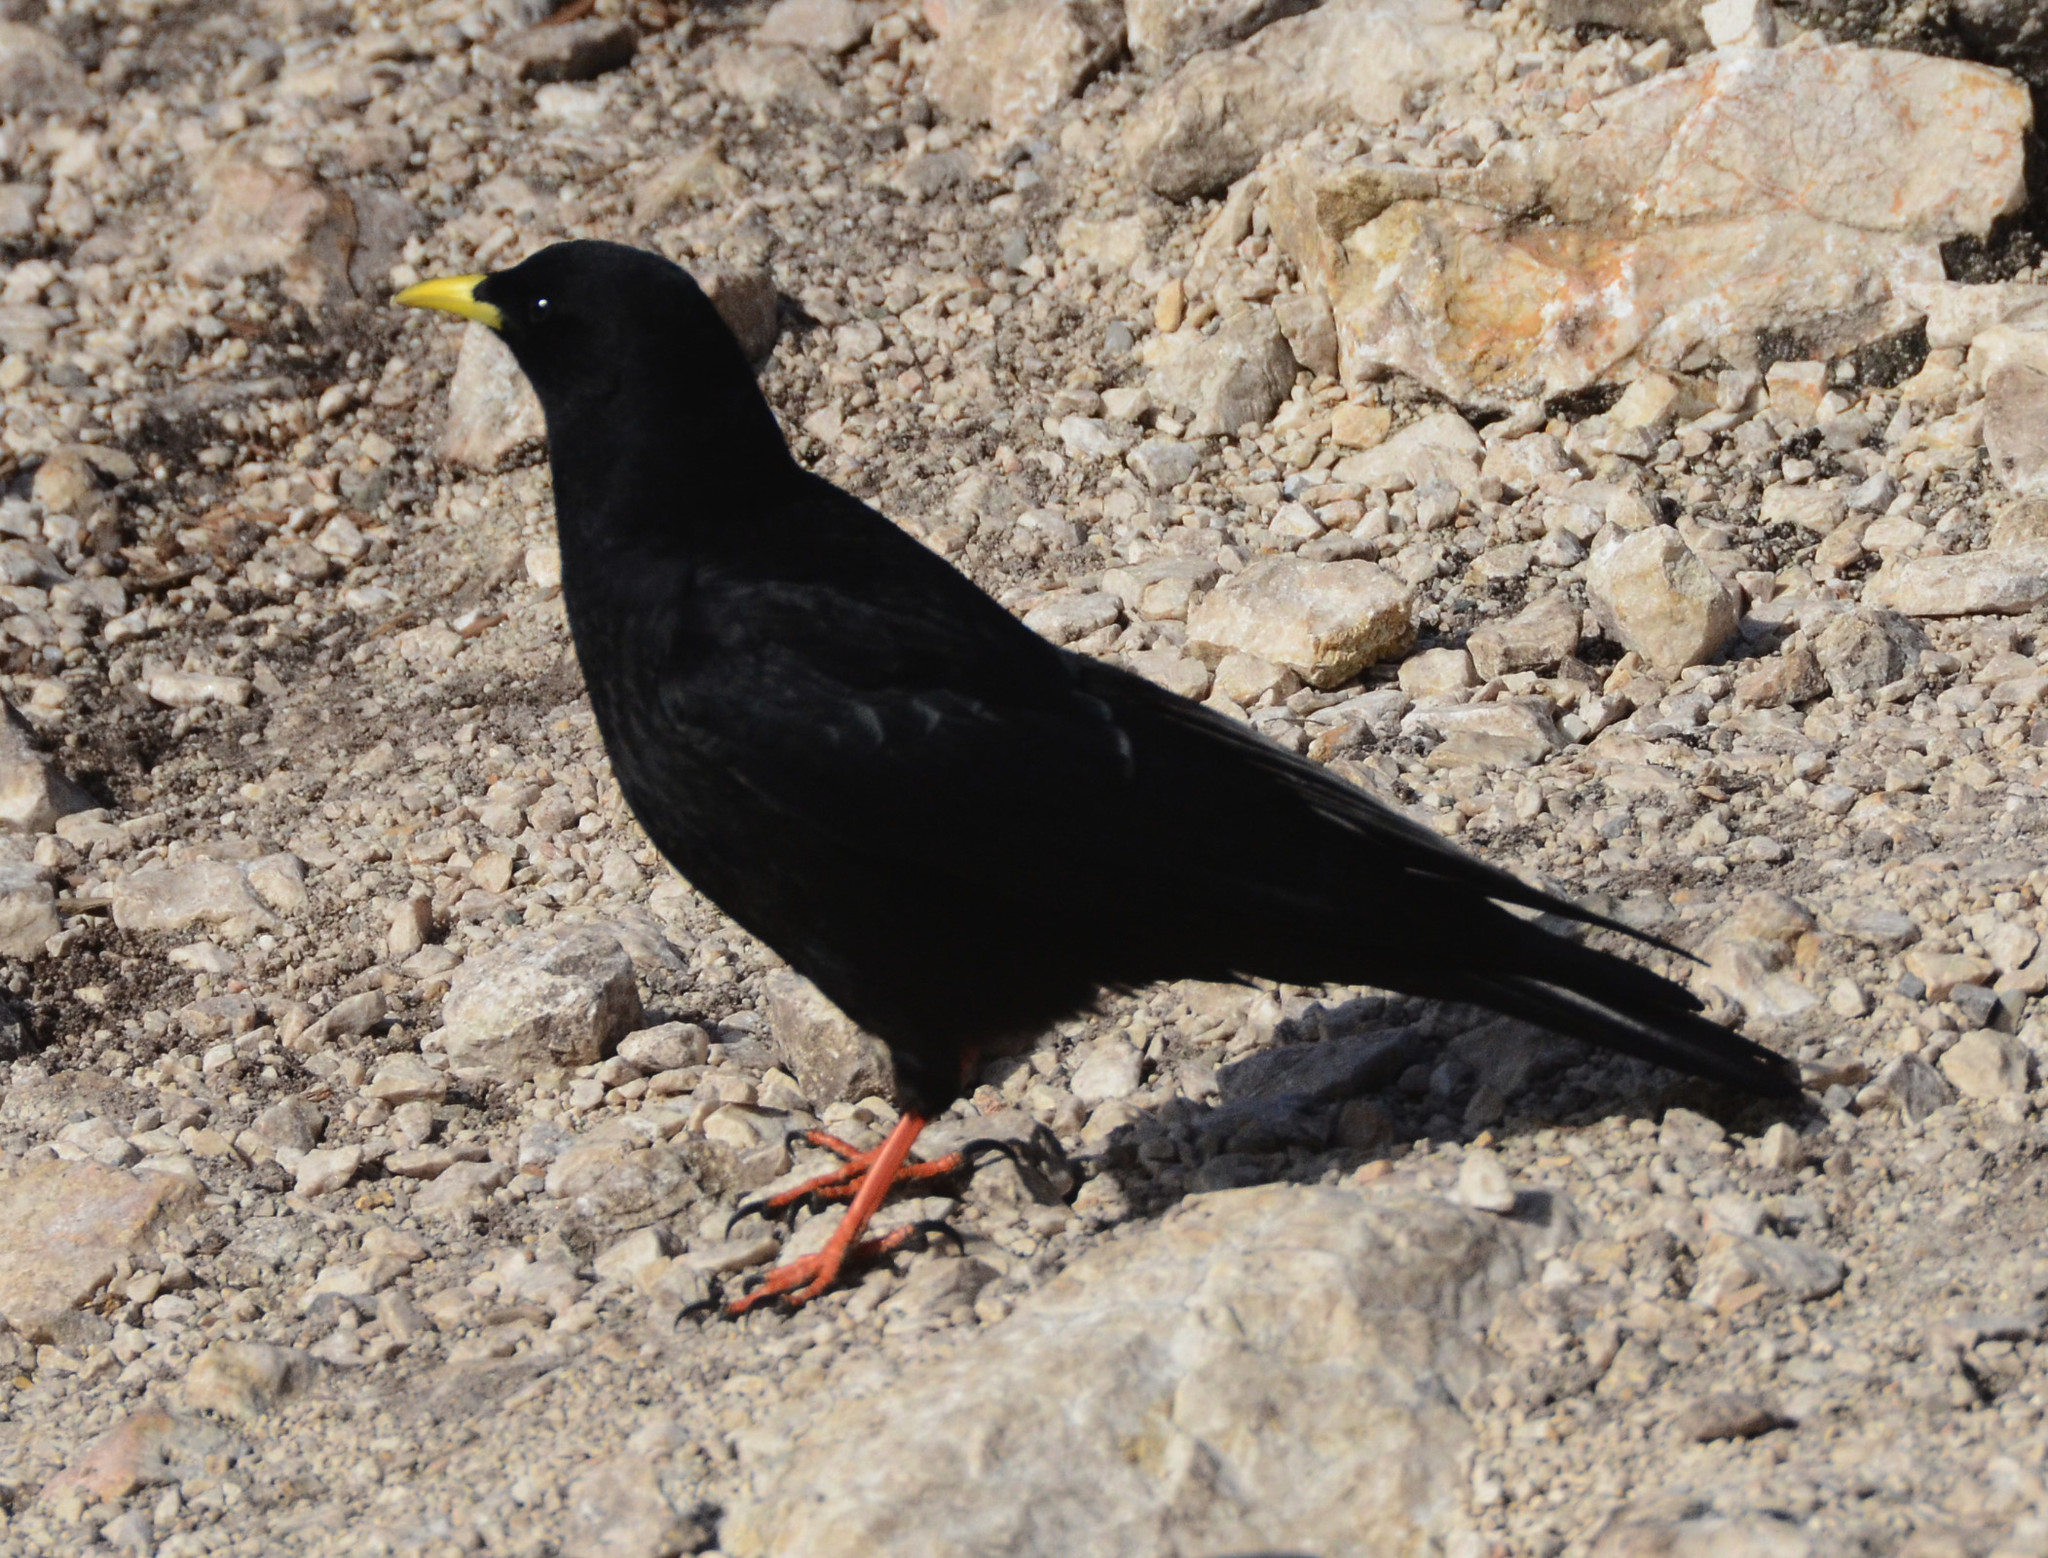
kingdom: Animalia
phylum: Chordata
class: Aves
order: Passeriformes
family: Corvidae
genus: Pyrrhocorax
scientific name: Pyrrhocorax graculus
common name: Alpine chough
